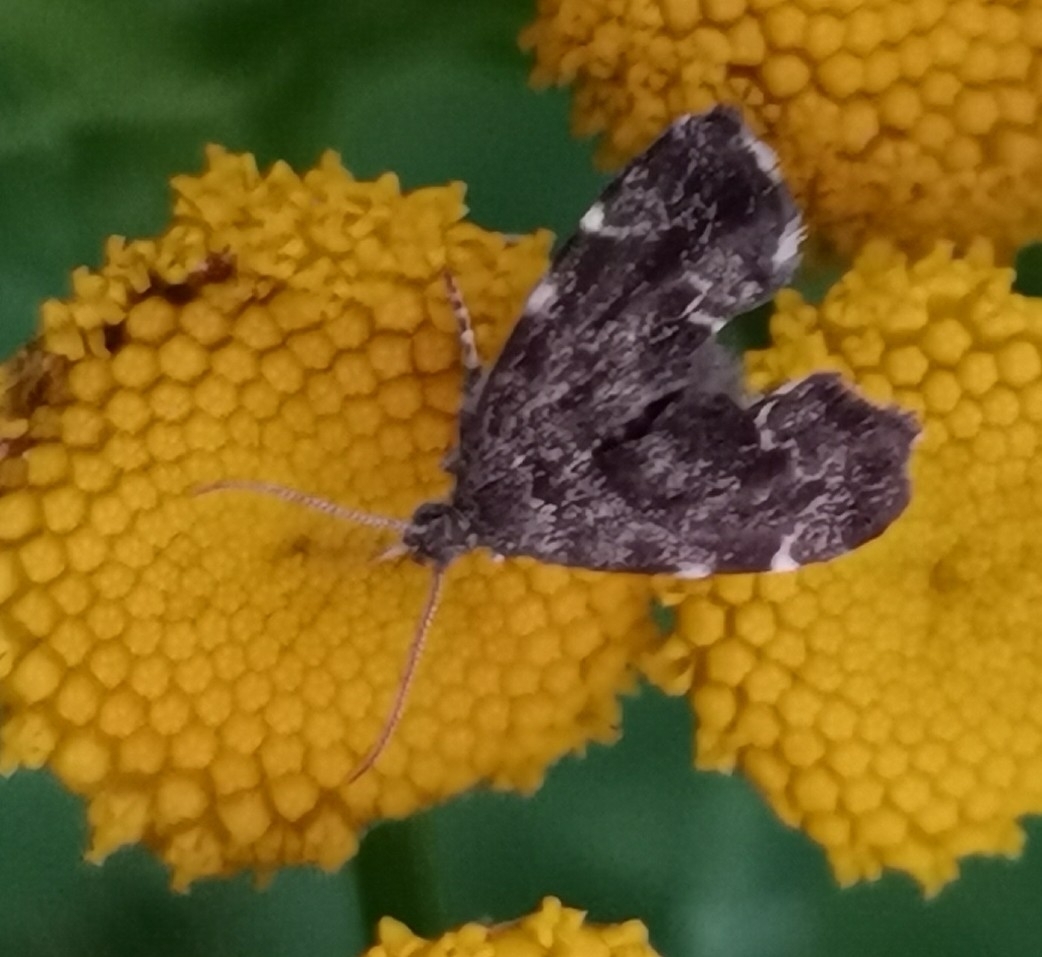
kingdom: Animalia
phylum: Arthropoda
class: Insecta
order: Lepidoptera
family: Choreutidae
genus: Anthophila
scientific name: Anthophila fabriciana
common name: Nettle-tap
